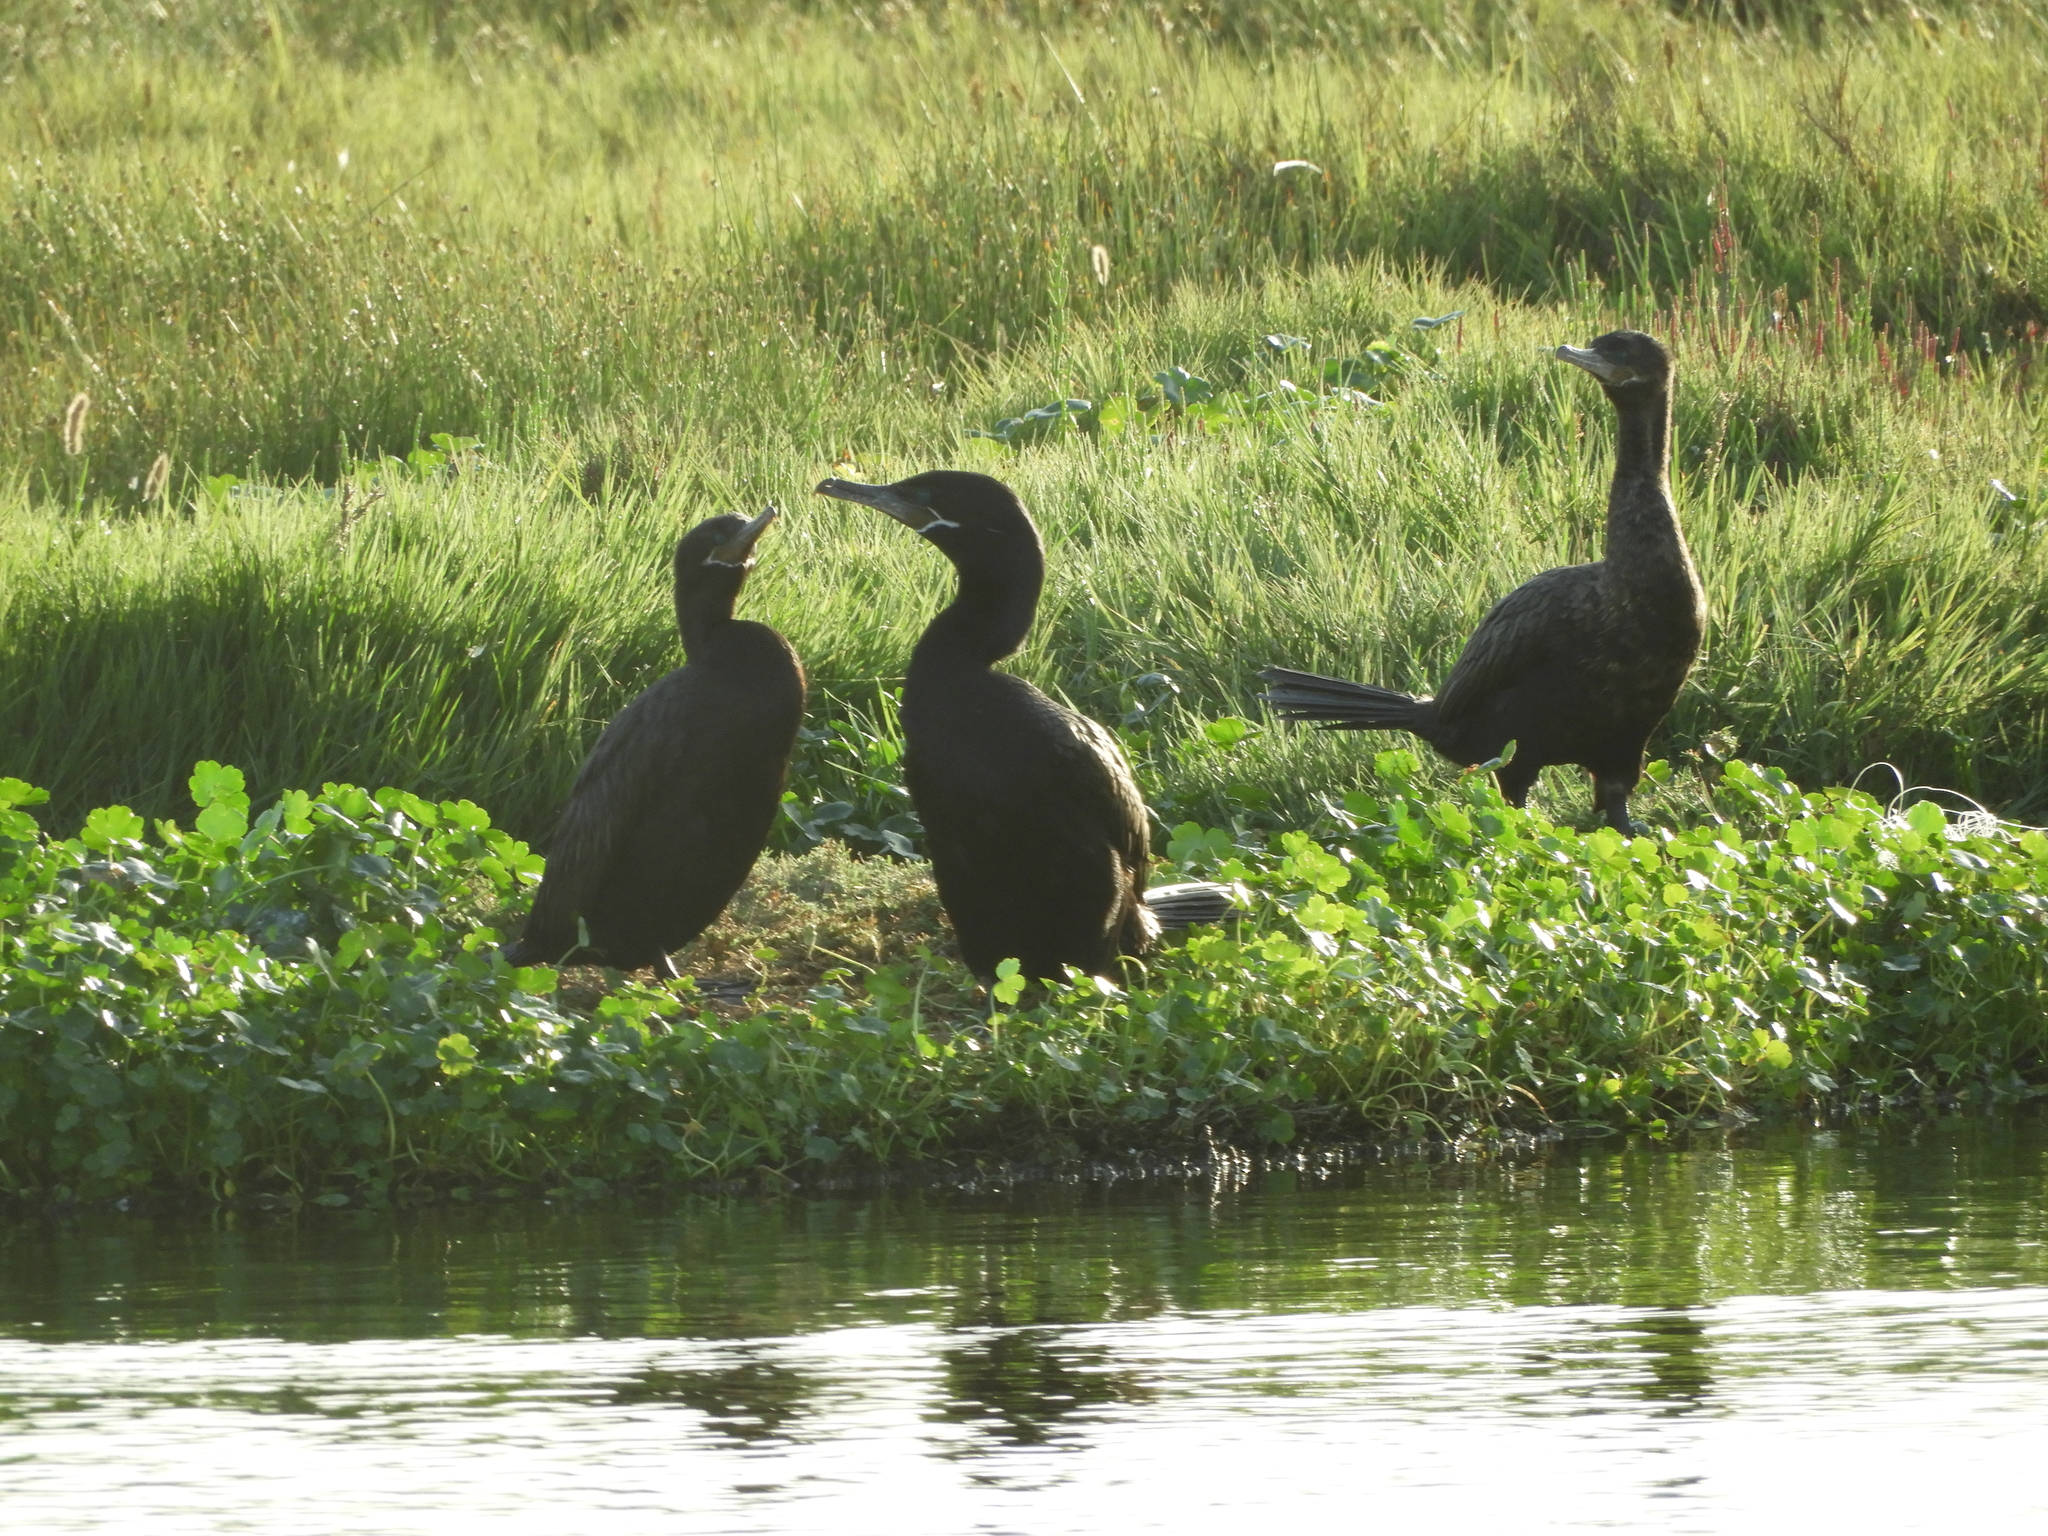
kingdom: Animalia
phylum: Chordata
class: Aves
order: Suliformes
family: Phalacrocoracidae
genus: Phalacrocorax
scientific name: Phalacrocorax brasilianus
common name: Neotropic cormorant
